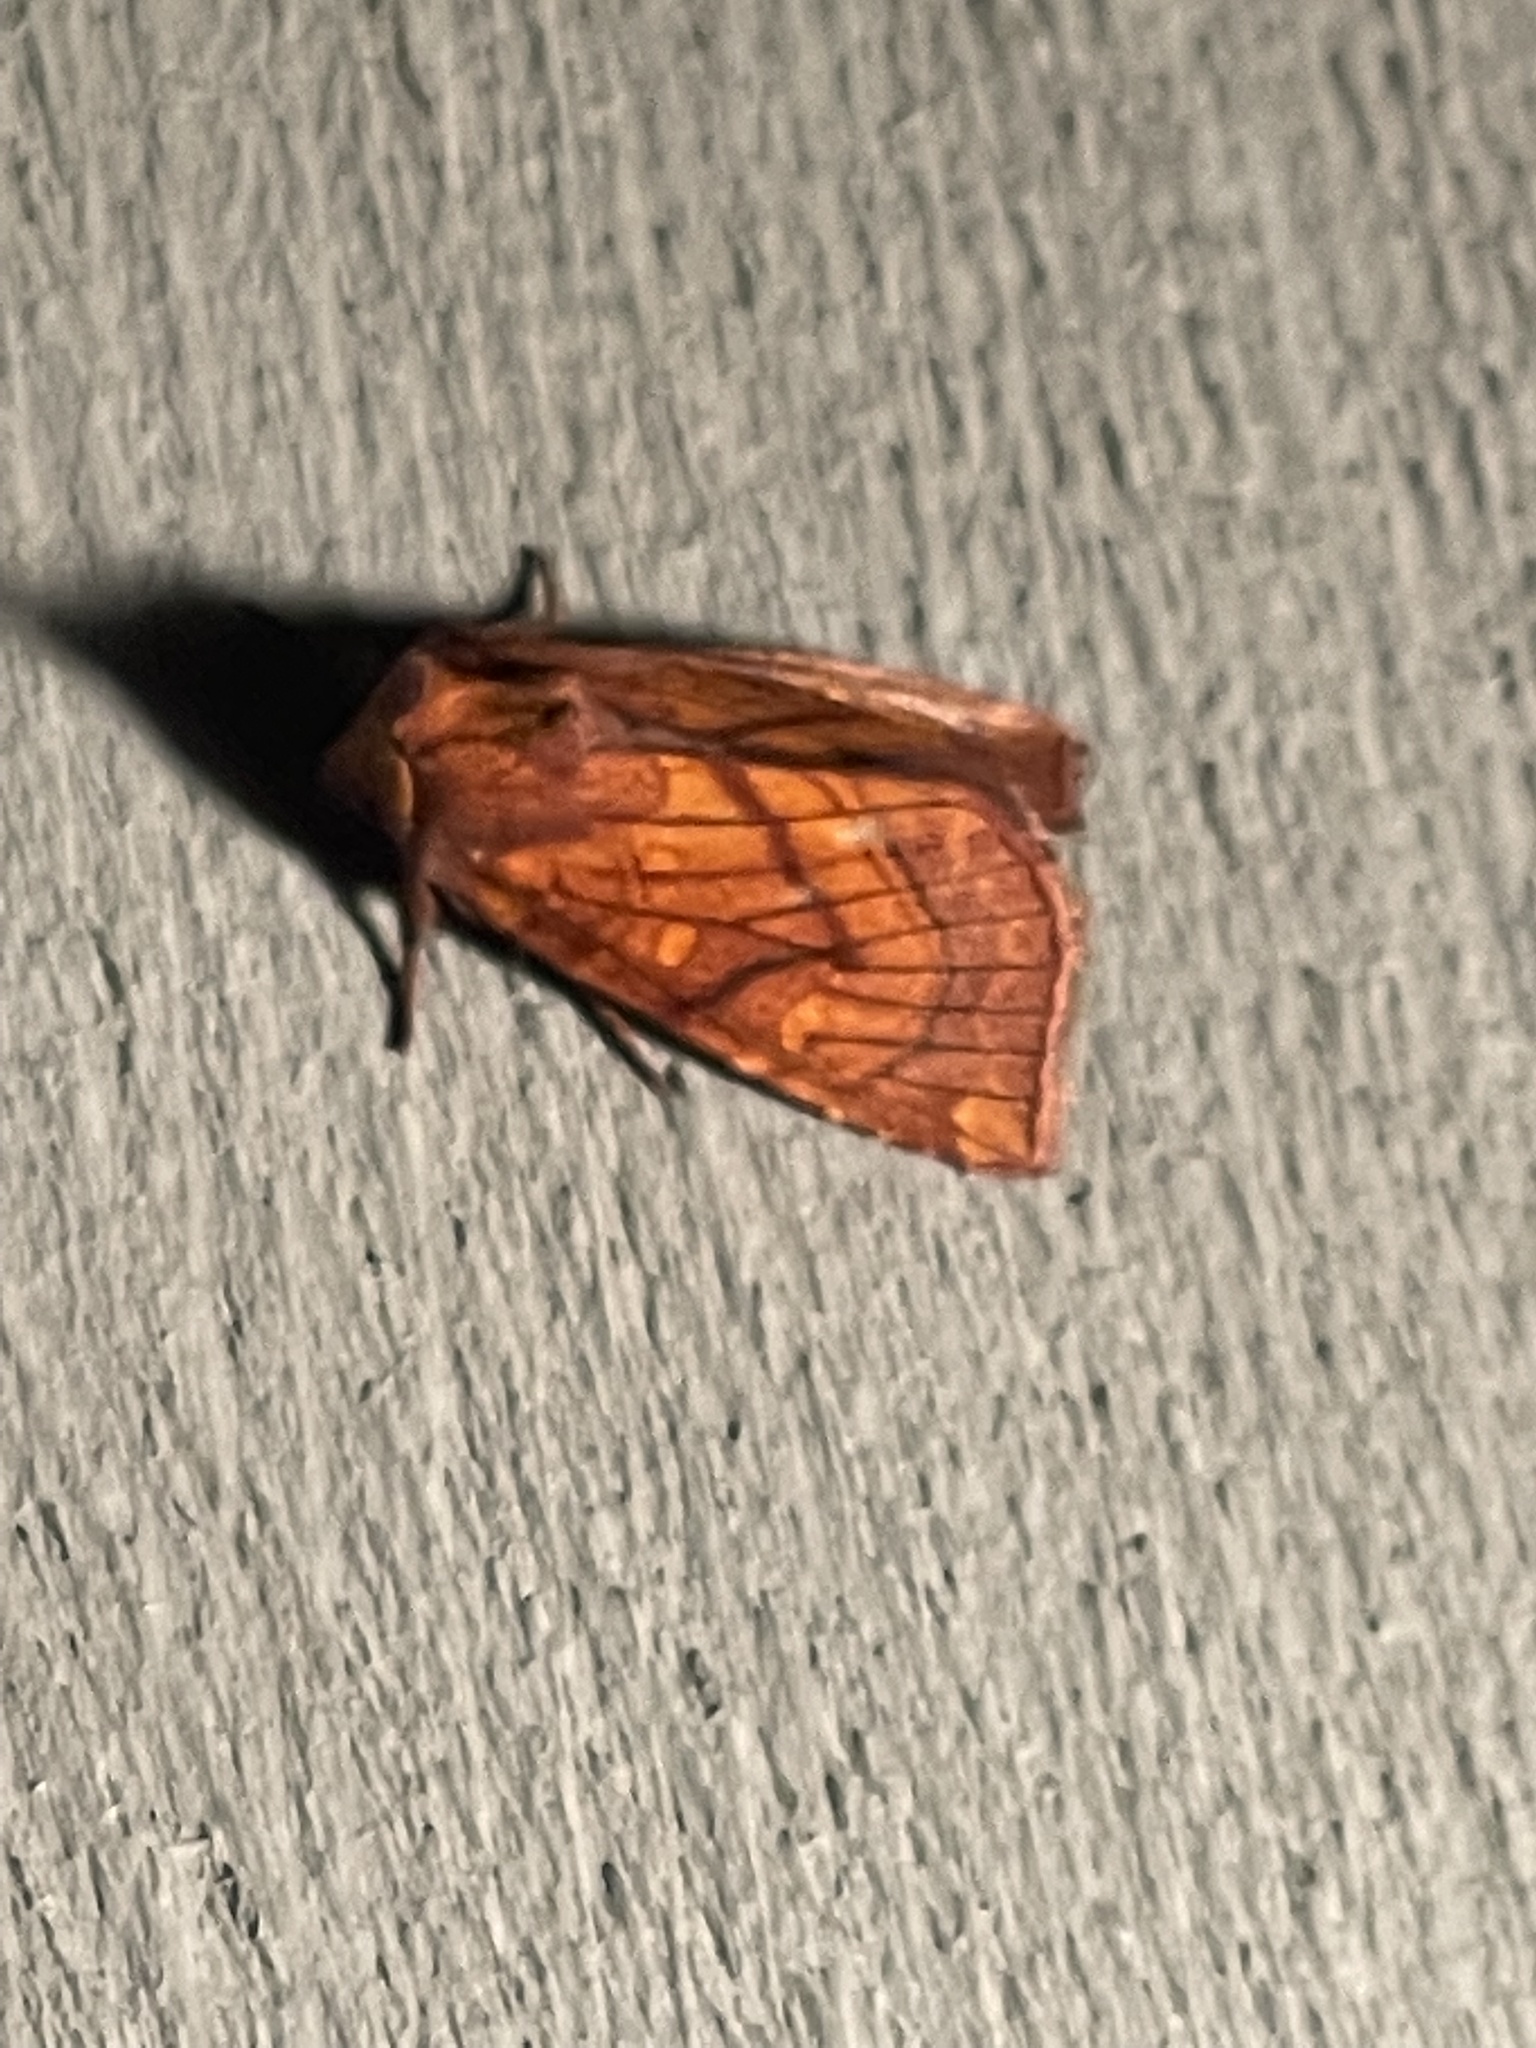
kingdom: Animalia
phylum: Arthropoda
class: Insecta
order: Lepidoptera
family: Noctuidae
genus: Papaipema
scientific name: Papaipema inquaesita
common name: Sensitive fern borer moth
